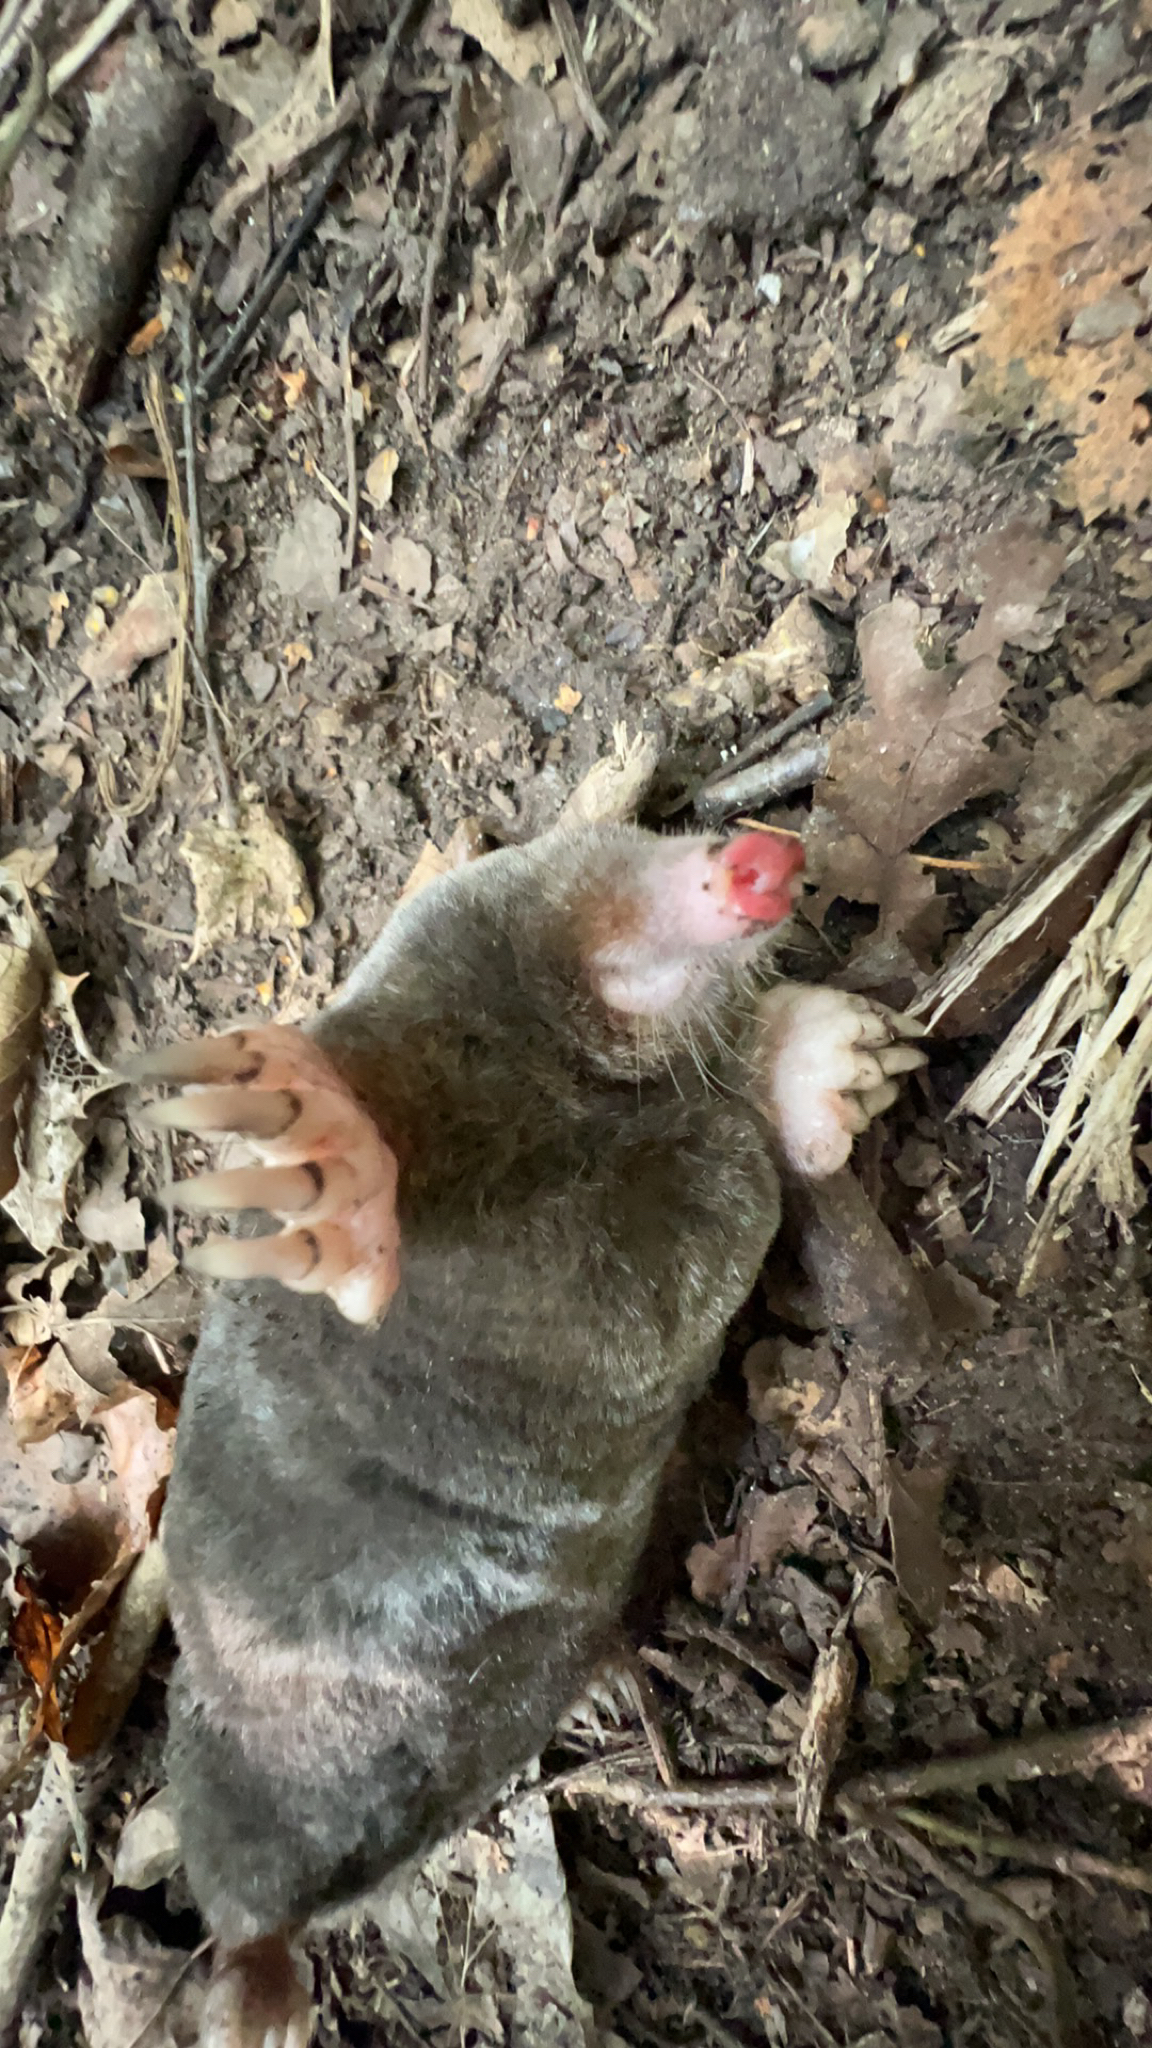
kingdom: Animalia
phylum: Chordata
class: Mammalia
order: Soricomorpha
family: Talpidae
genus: Talpa
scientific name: Talpa europaea
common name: European mole
